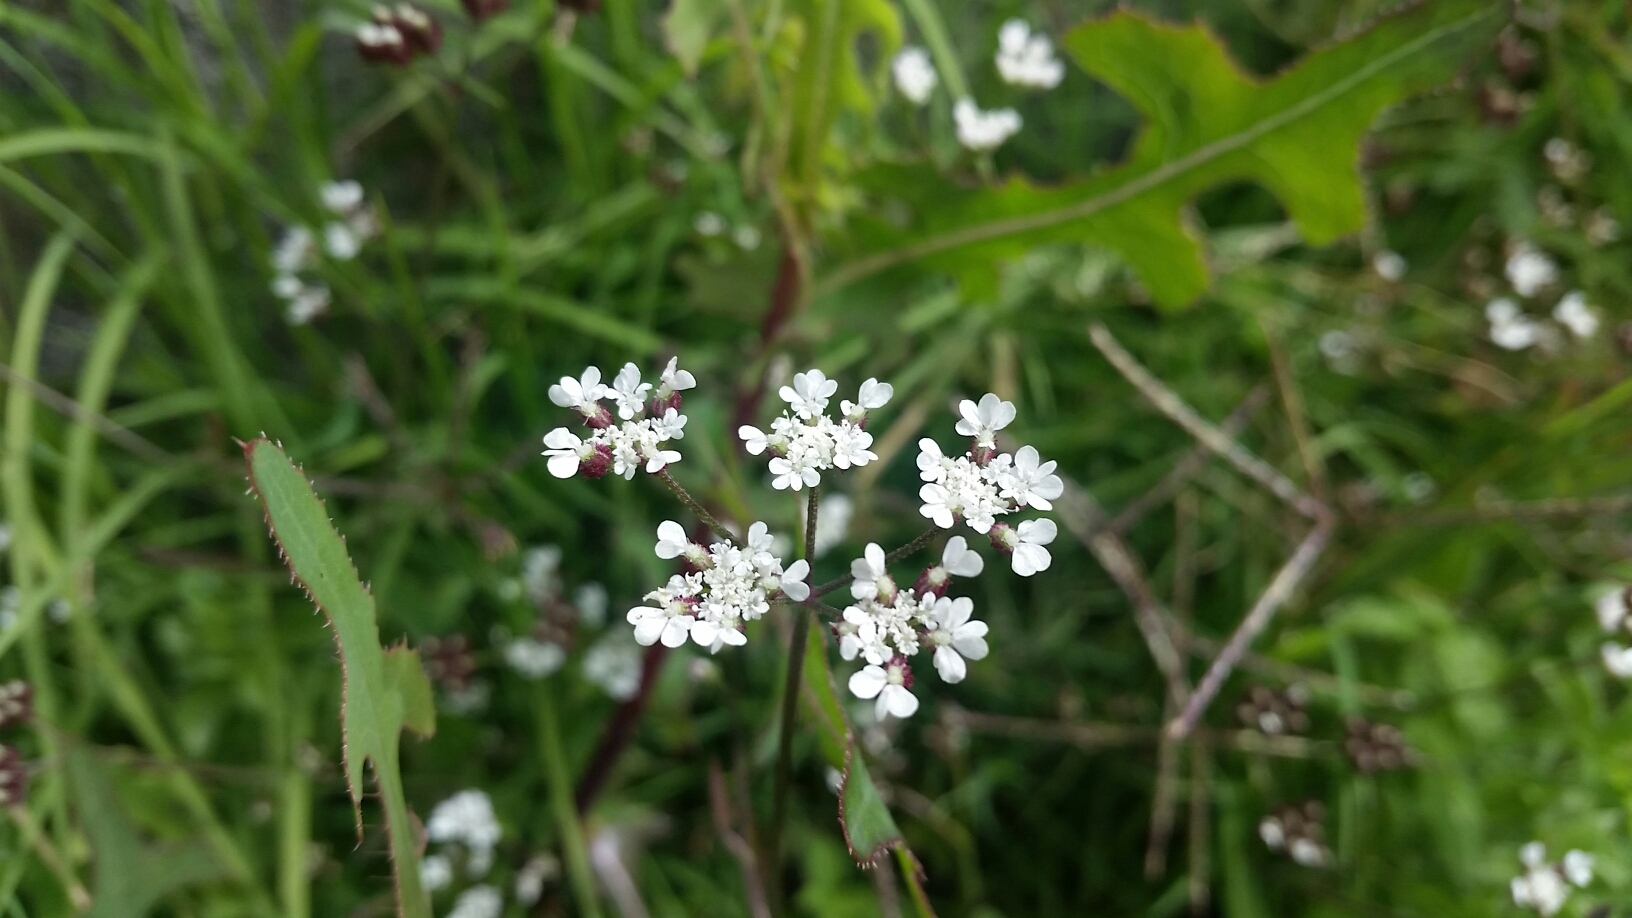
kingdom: Plantae
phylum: Tracheophyta
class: Magnoliopsida
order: Apiales
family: Apiaceae
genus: Torilis
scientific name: Torilis arvensis
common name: Spreading hedge-parsley
